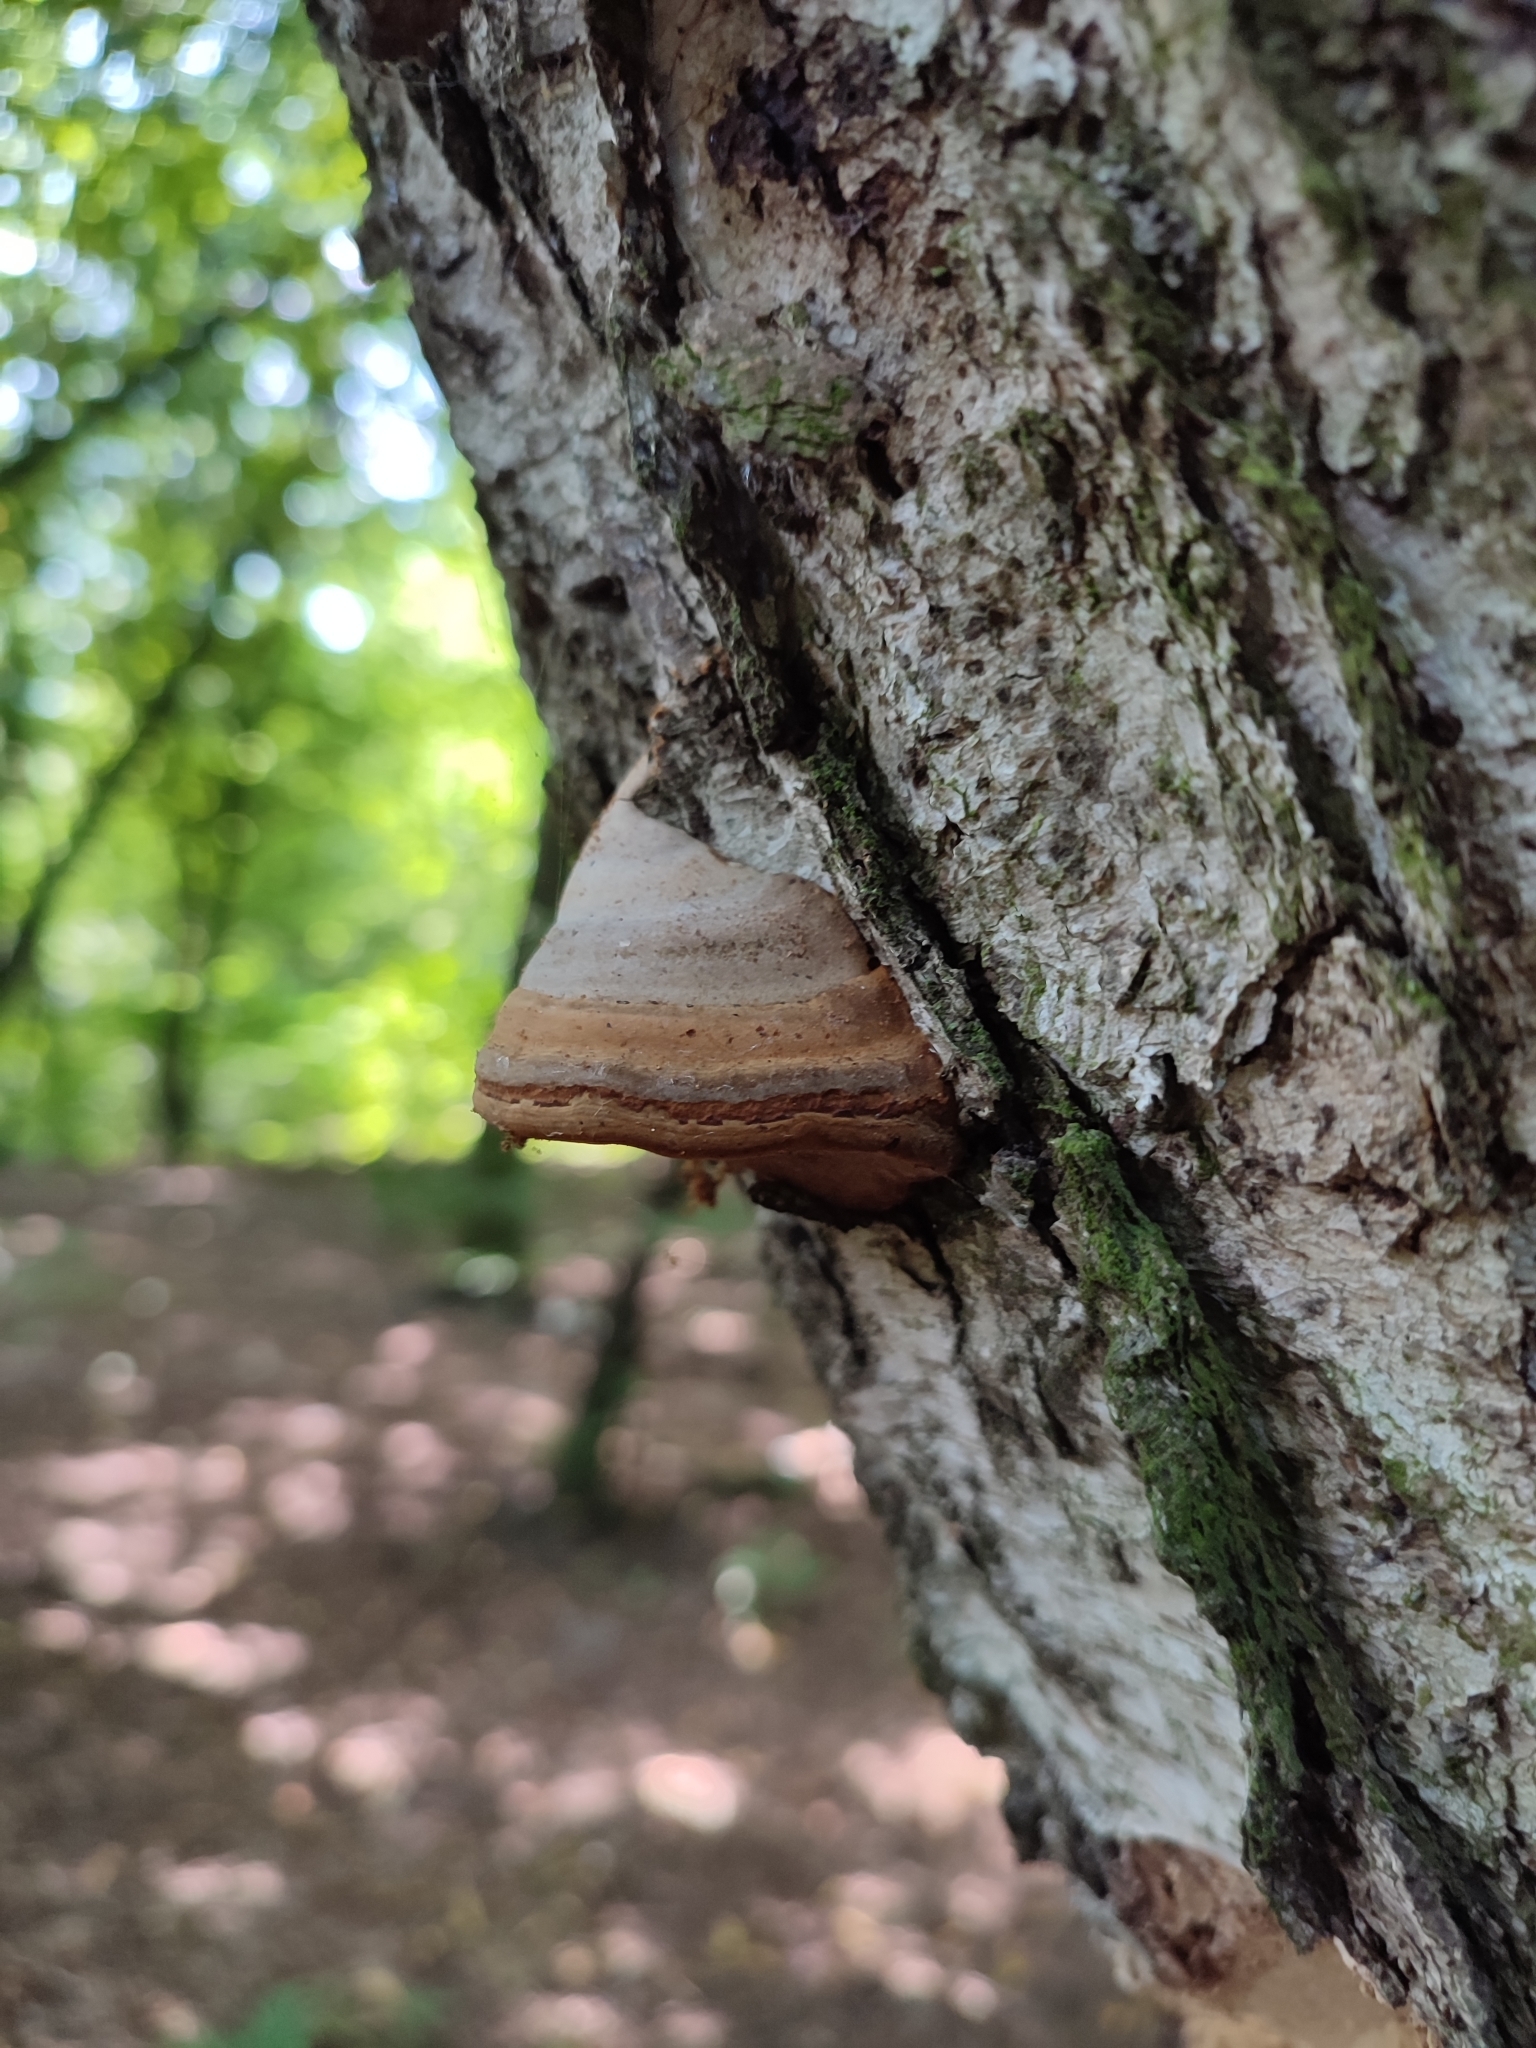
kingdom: Fungi
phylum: Basidiomycota
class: Agaricomycetes
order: Polyporales
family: Polyporaceae
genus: Fomes
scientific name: Fomes fomentarius
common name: Hoof fungus
